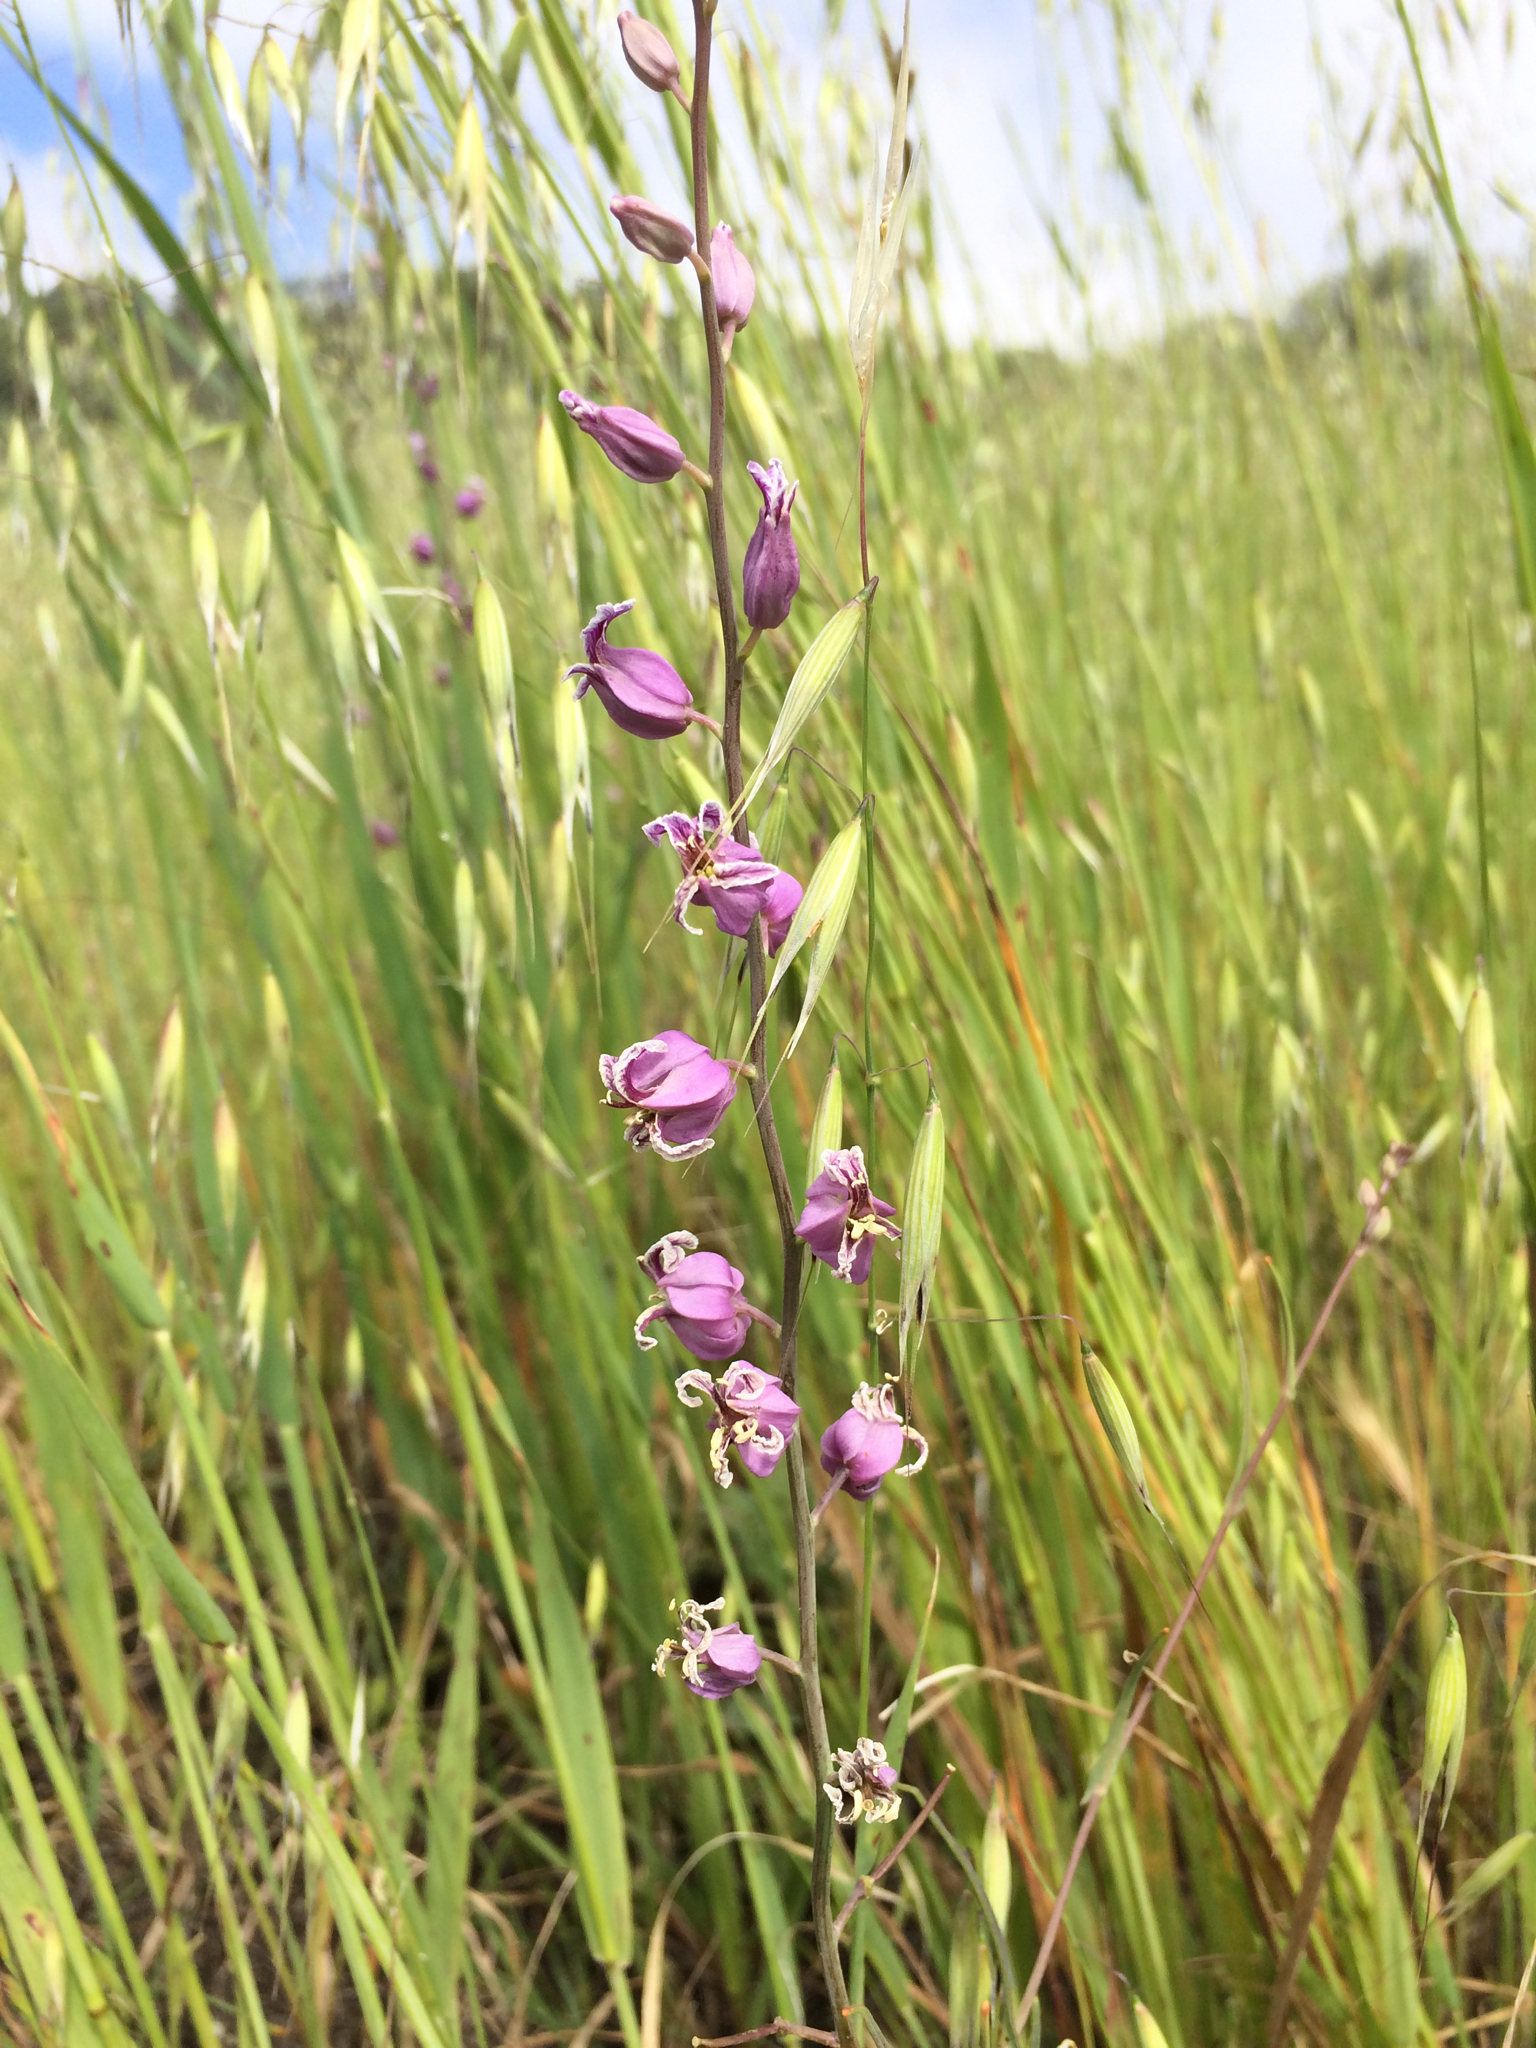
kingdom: Plantae
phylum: Tracheophyta
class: Magnoliopsida
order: Brassicales
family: Brassicaceae
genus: Streptanthus
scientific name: Streptanthus glandulosus
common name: Jewel-flower
